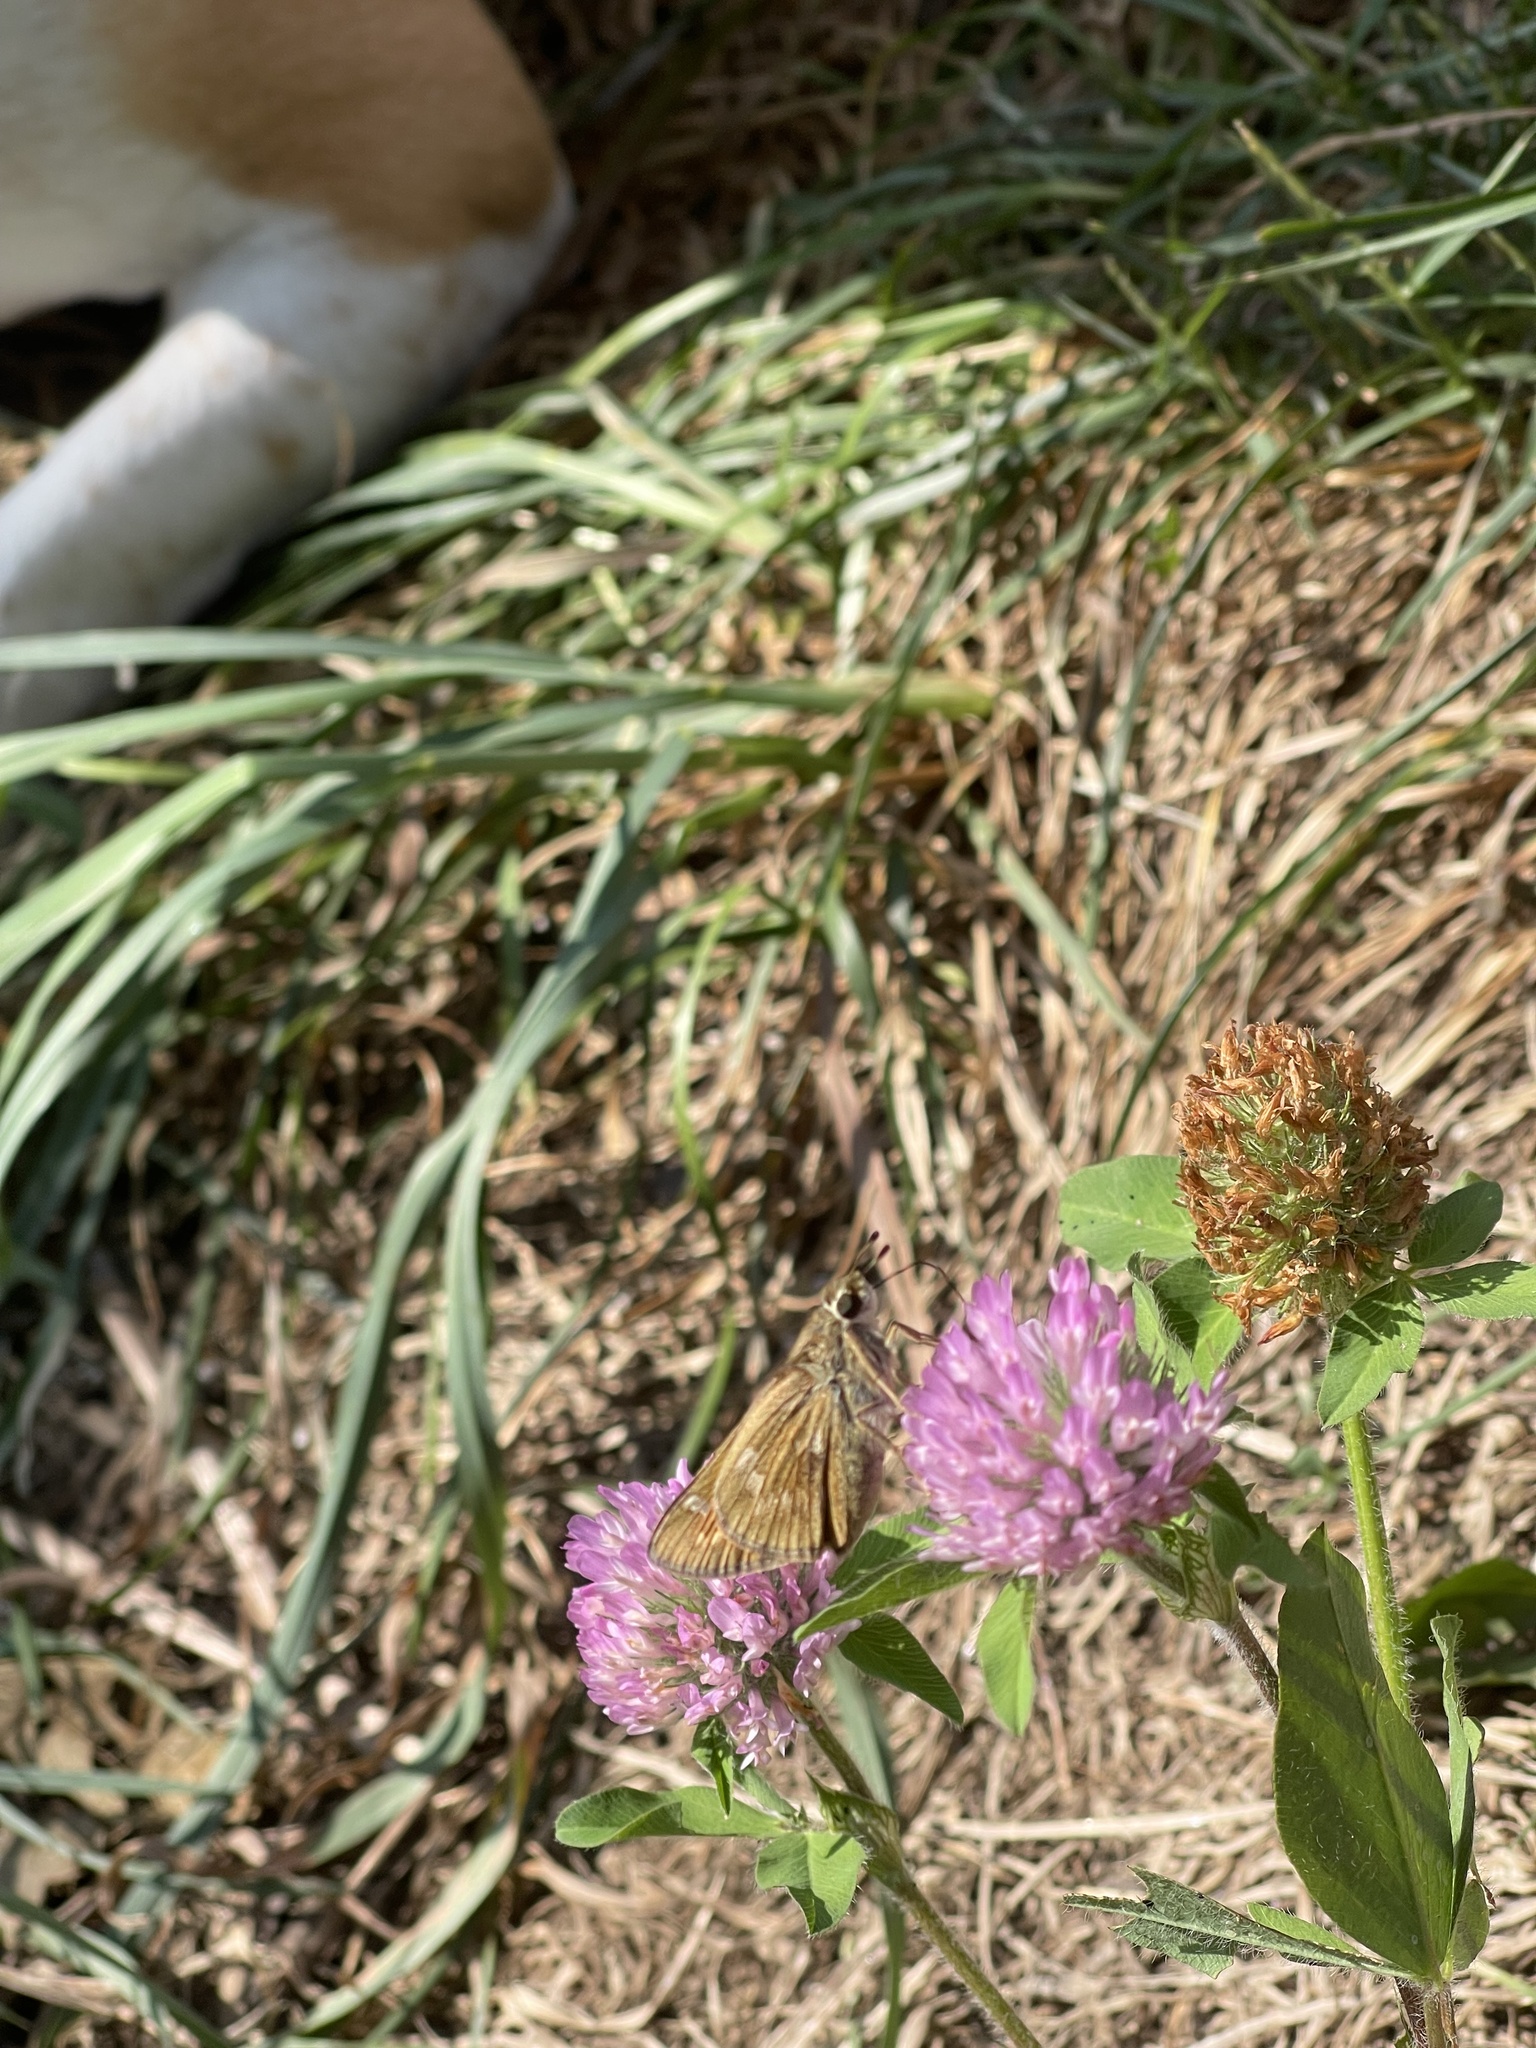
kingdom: Animalia
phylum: Arthropoda
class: Insecta
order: Lepidoptera
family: Hesperiidae
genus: Atalopedes
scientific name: Atalopedes
